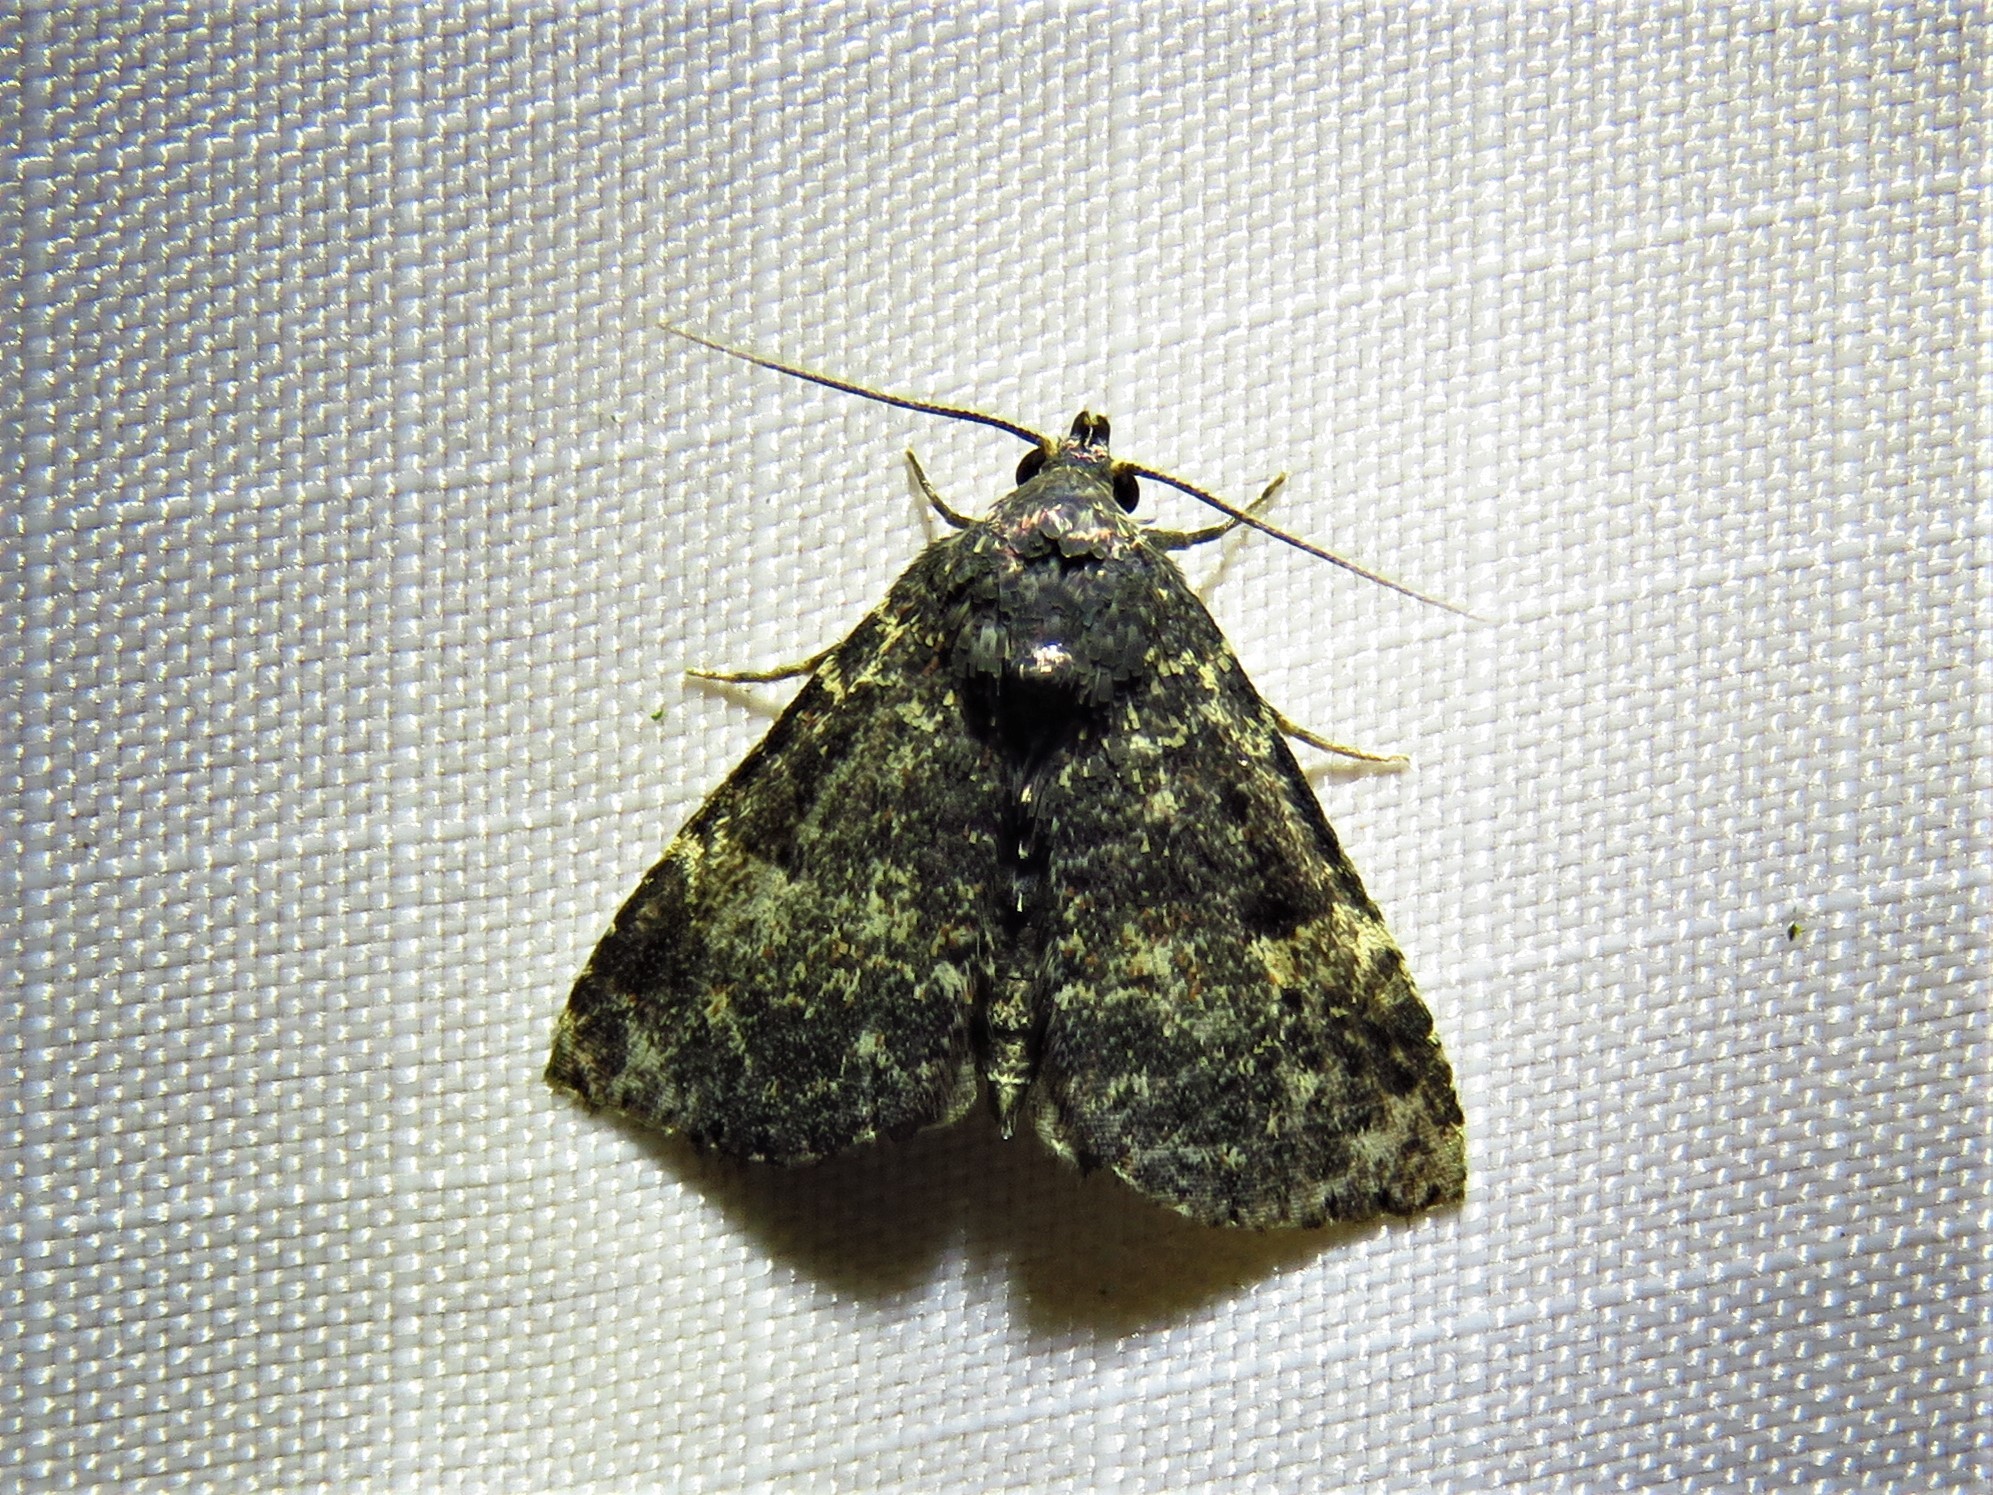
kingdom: Animalia
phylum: Arthropoda
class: Insecta
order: Lepidoptera
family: Erebidae
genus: Metalectra
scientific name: Metalectra diabolica
